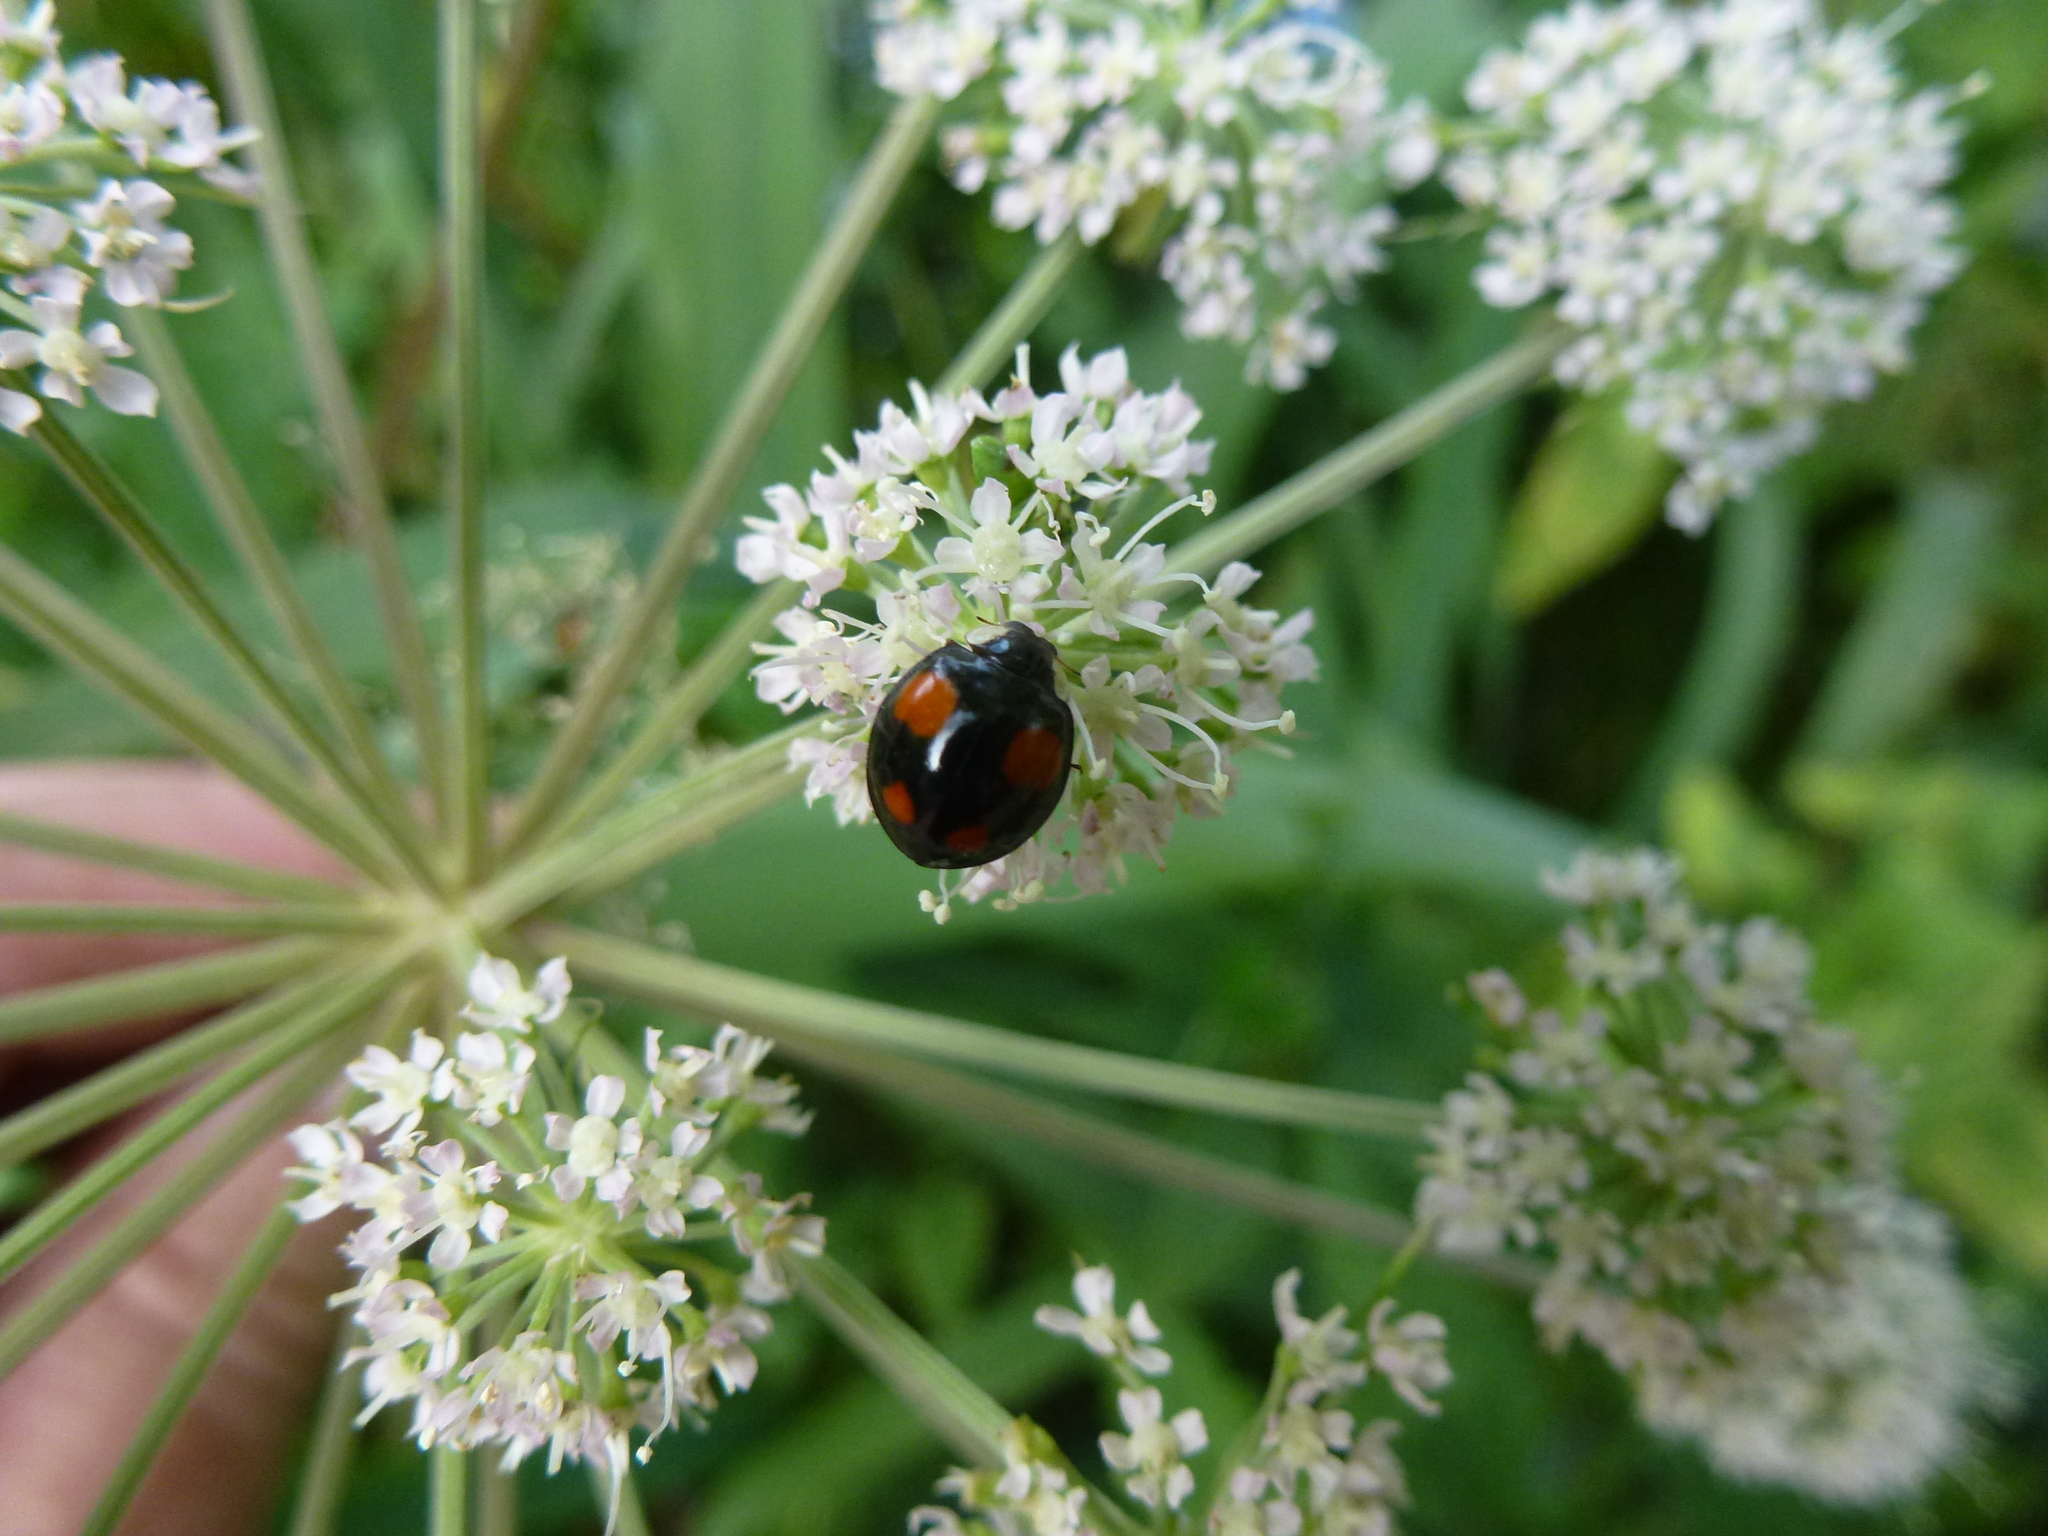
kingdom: Animalia
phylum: Arthropoda
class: Insecta
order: Coleoptera
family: Coccinellidae
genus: Harmonia
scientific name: Harmonia axyridis
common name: Harlequin ladybird
